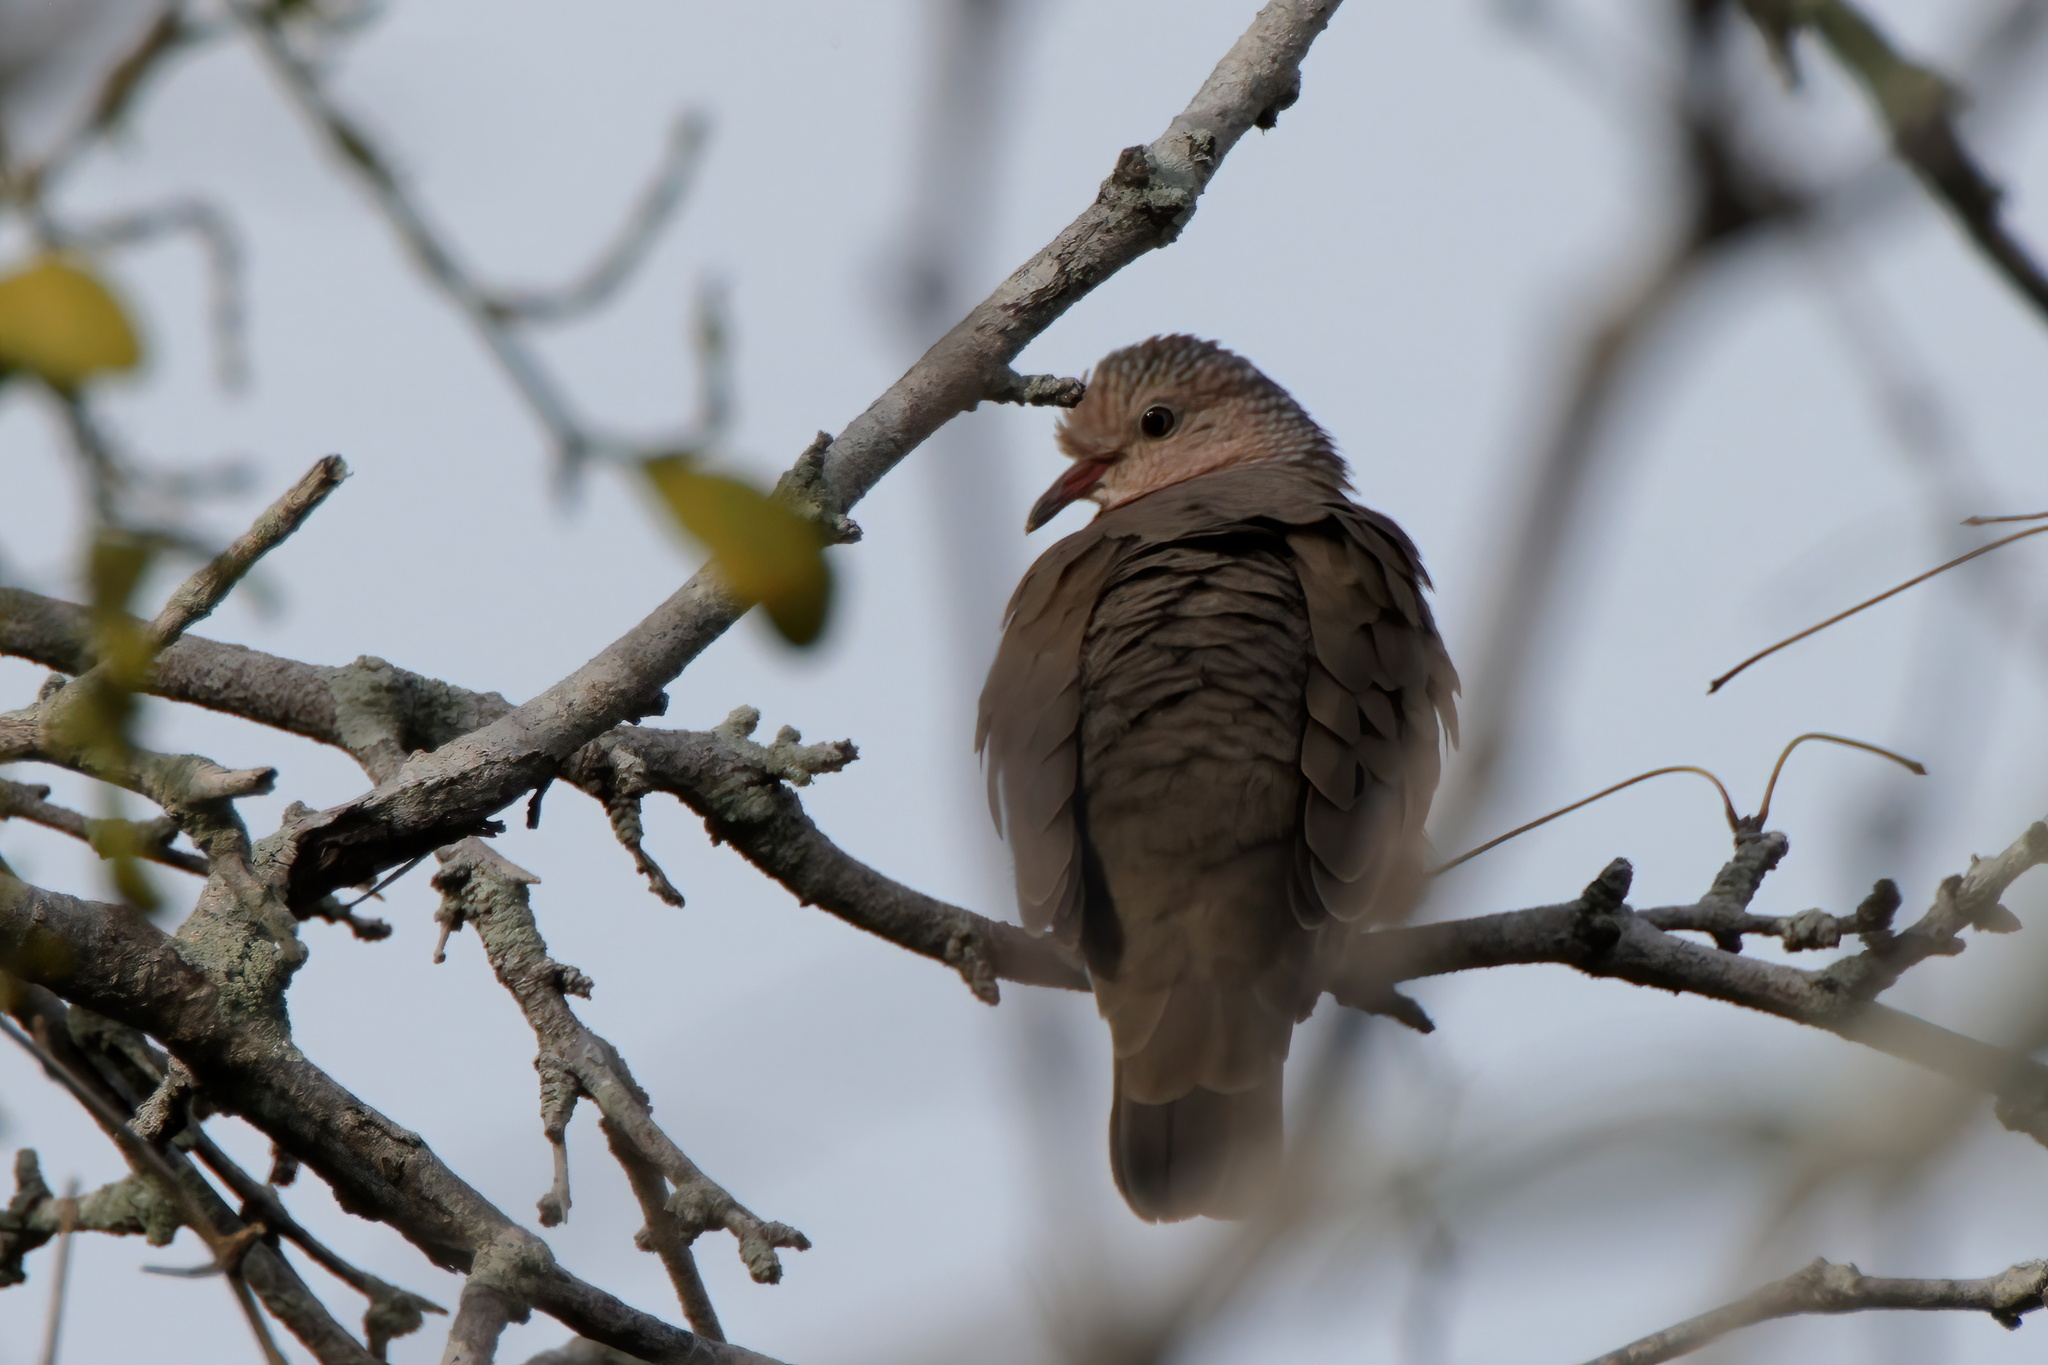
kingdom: Animalia
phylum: Chordata
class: Aves
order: Columbiformes
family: Columbidae
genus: Columbina
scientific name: Columbina passerina
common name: Common ground-dove
